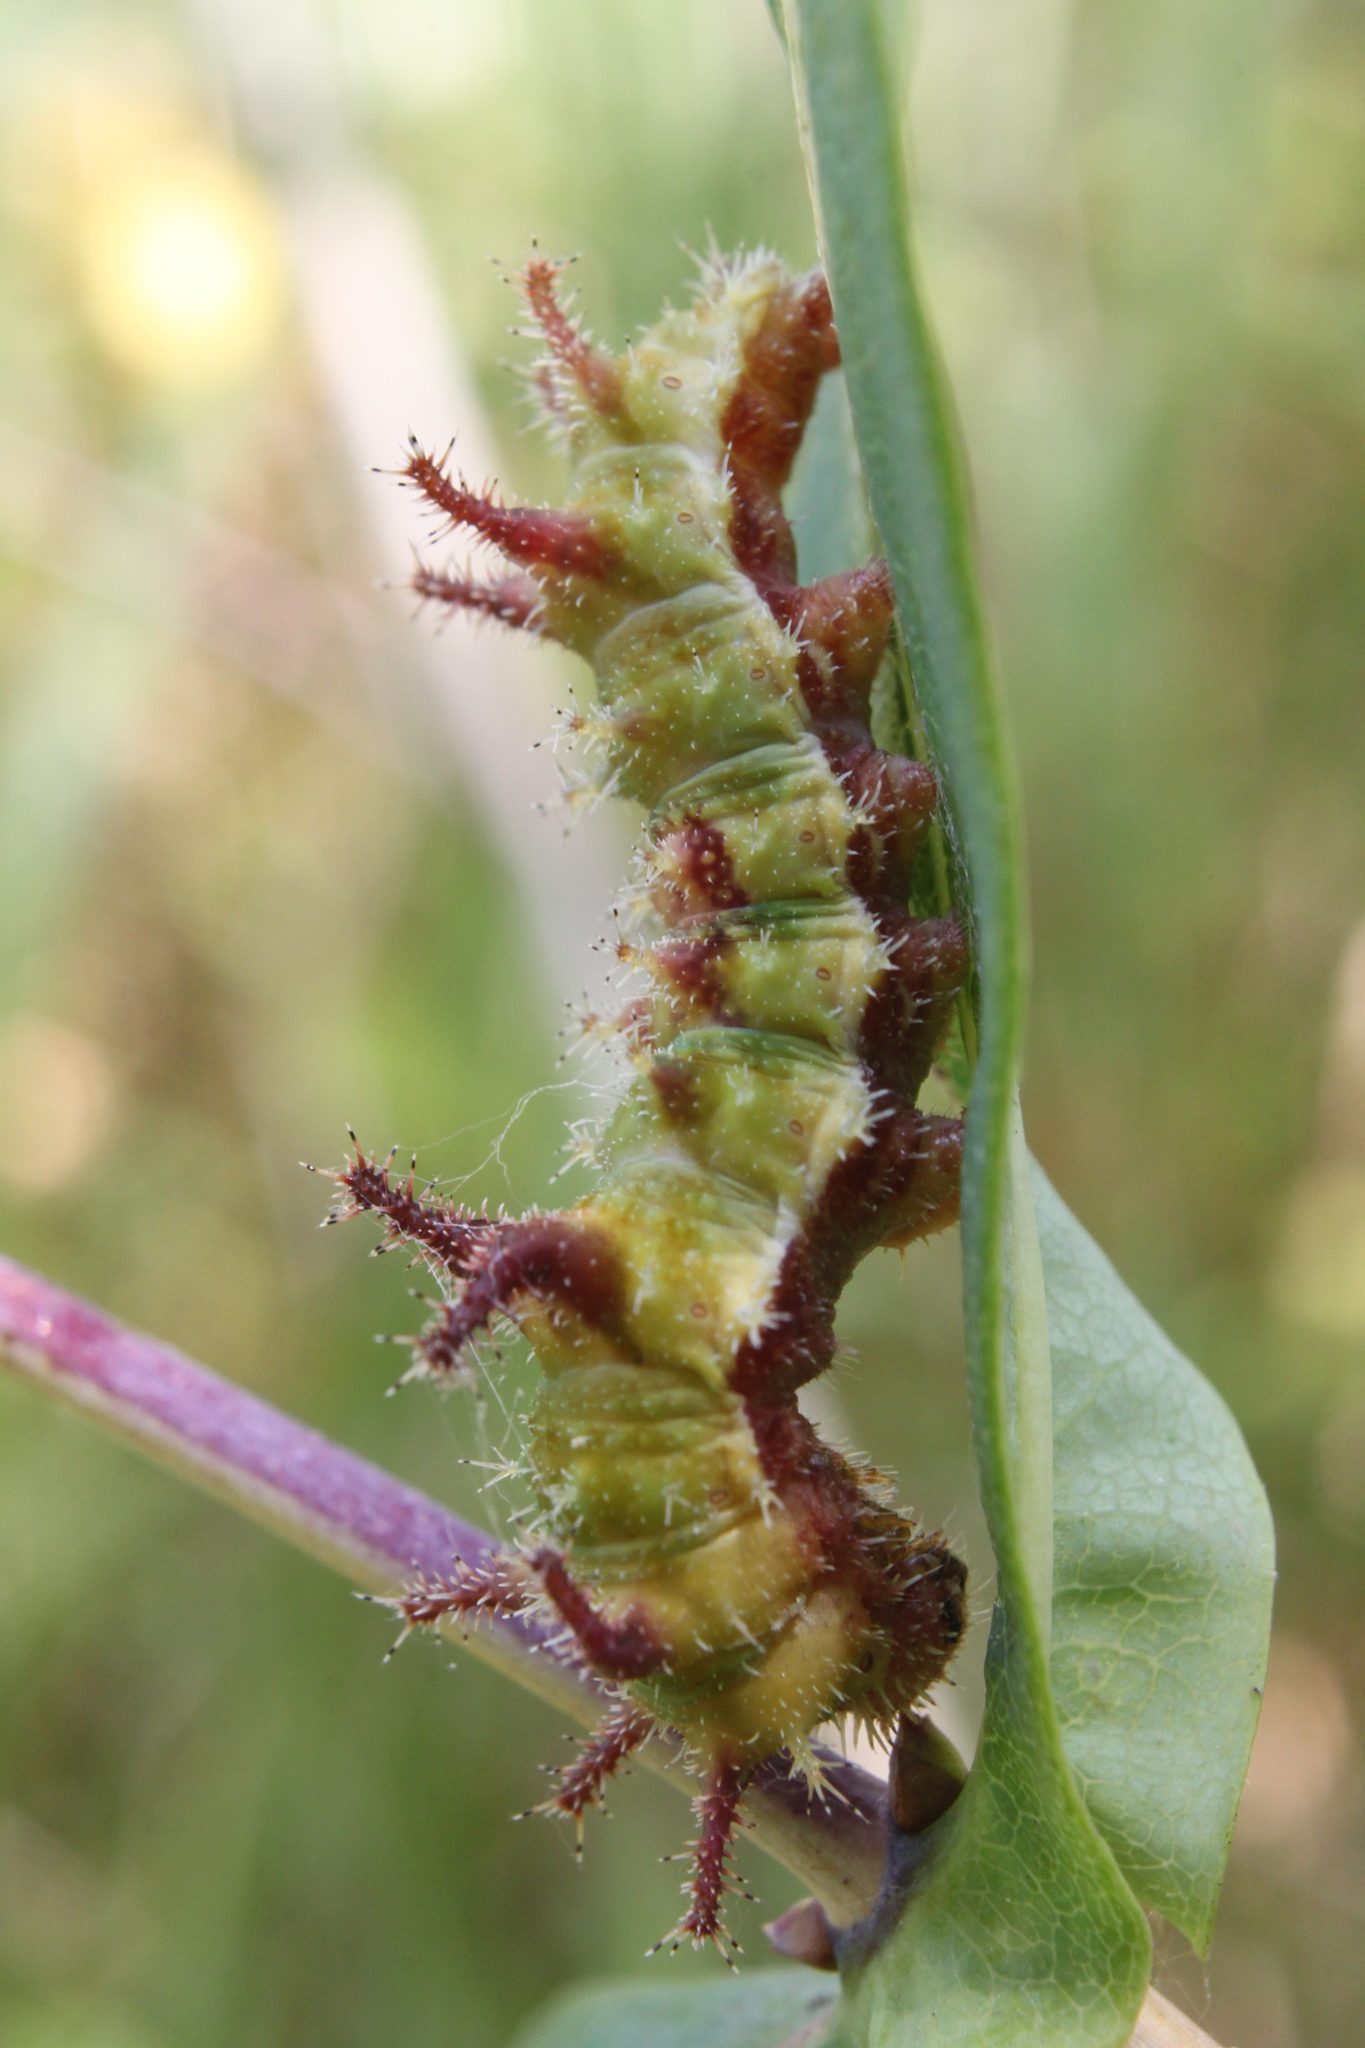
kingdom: Animalia
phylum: Arthropoda
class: Insecta
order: Lepidoptera
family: Nymphalidae
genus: Limenitis
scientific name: Limenitis reducta
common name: Southern white admiral
